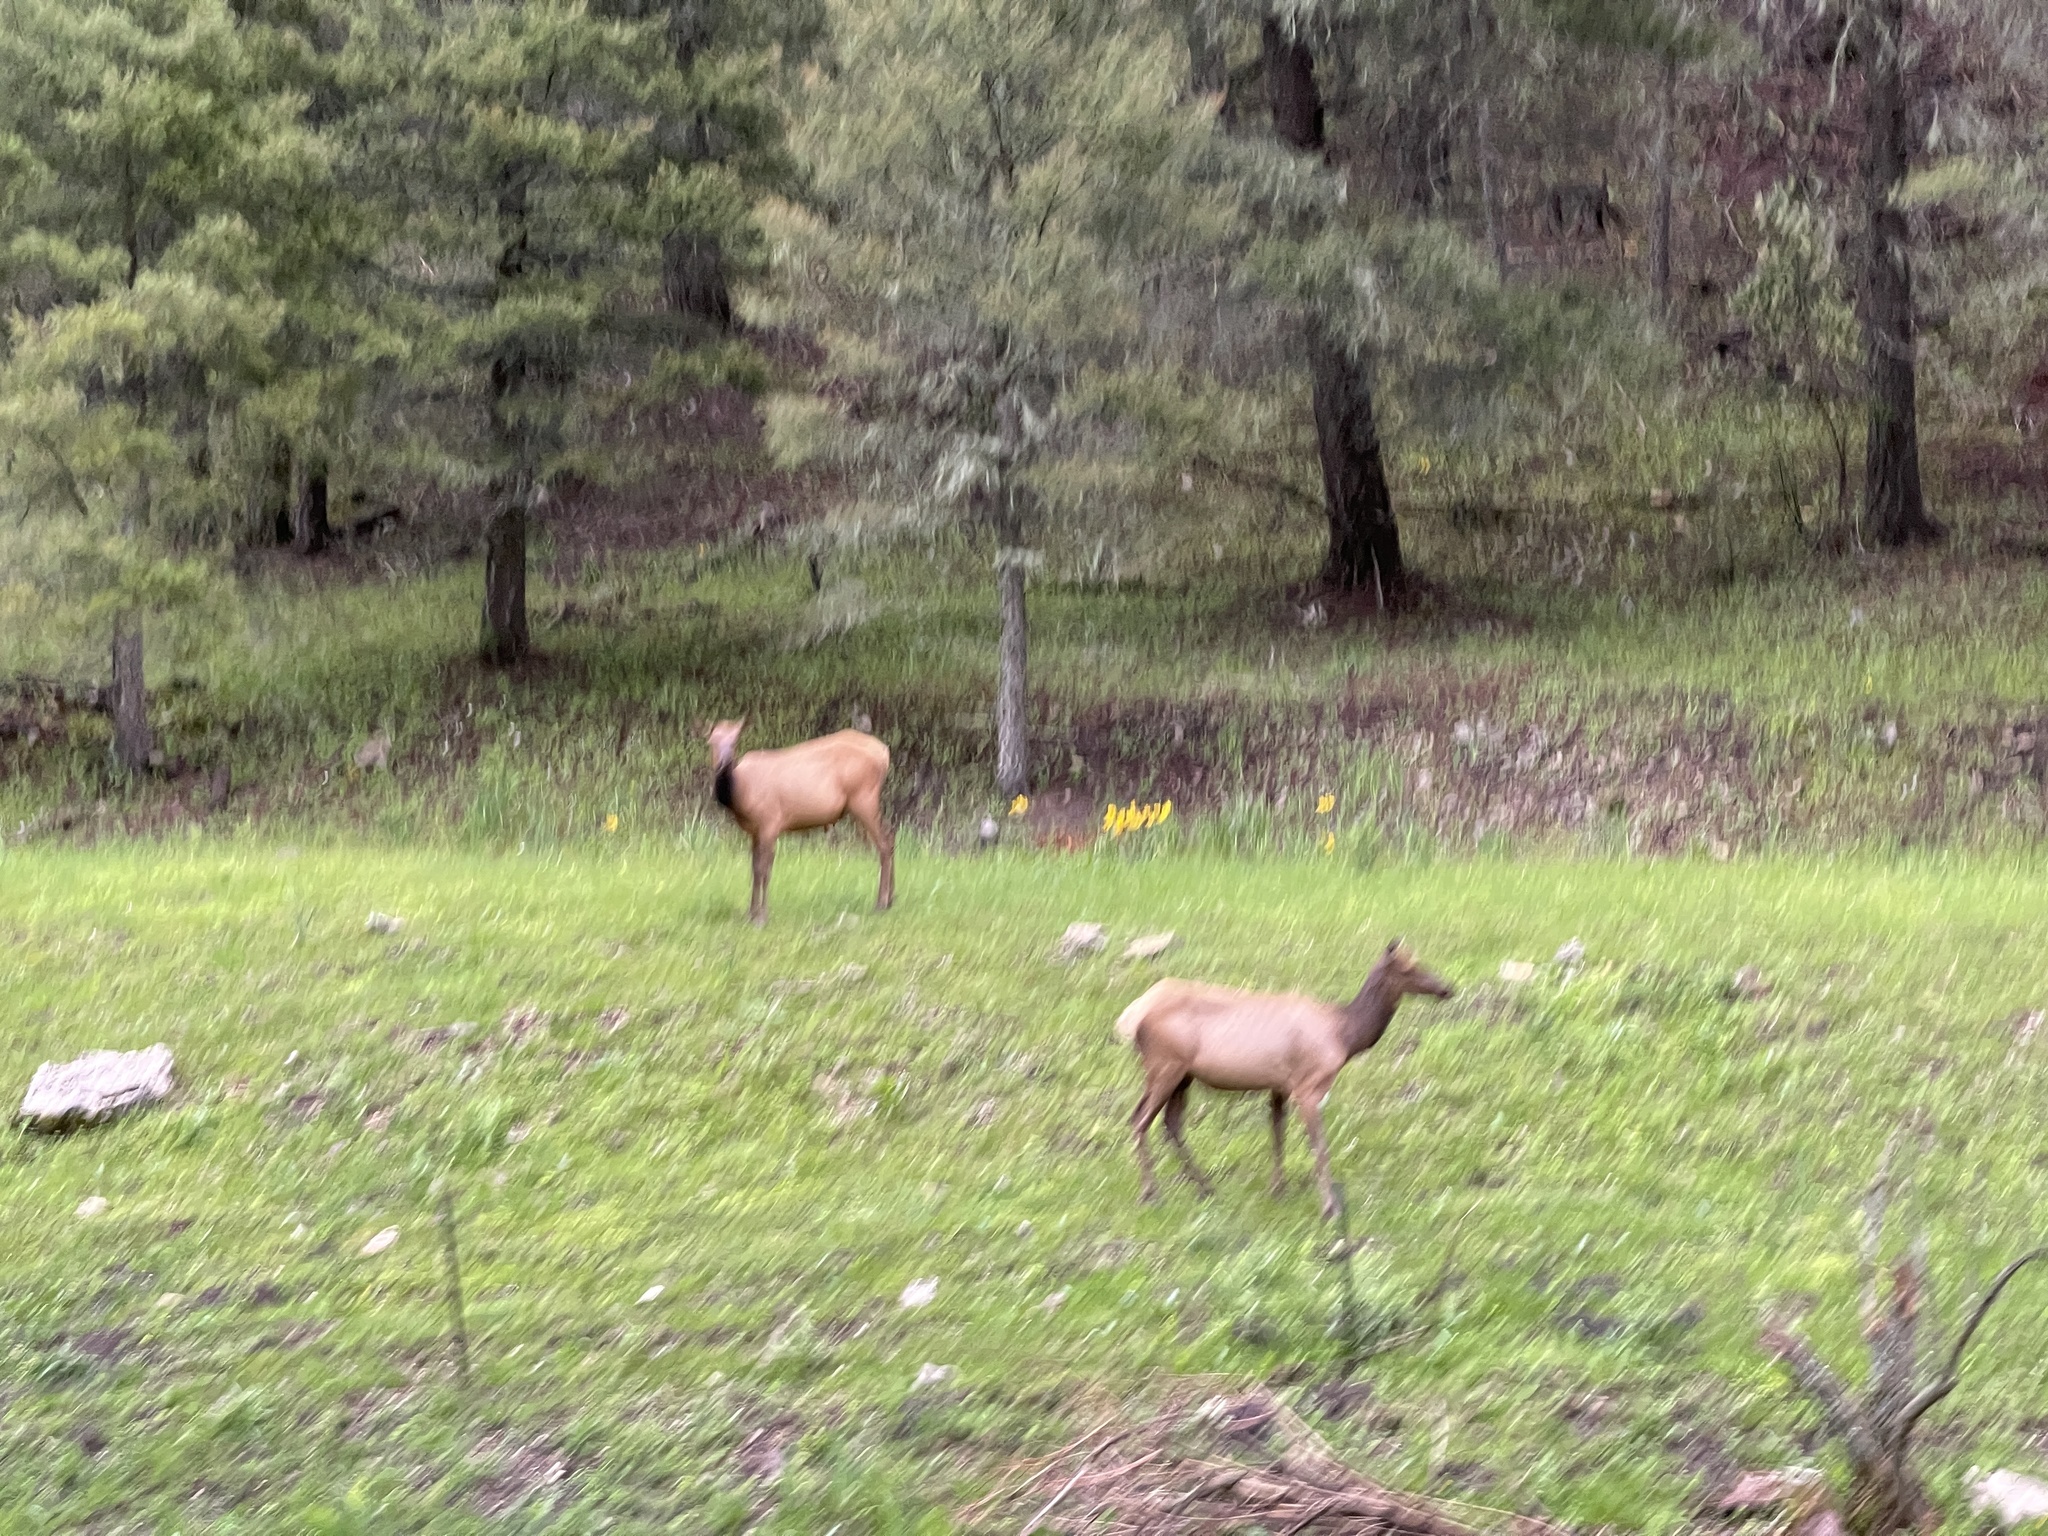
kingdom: Animalia
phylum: Chordata
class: Mammalia
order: Artiodactyla
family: Cervidae
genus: Cervus
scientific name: Cervus elaphus
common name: Red deer
